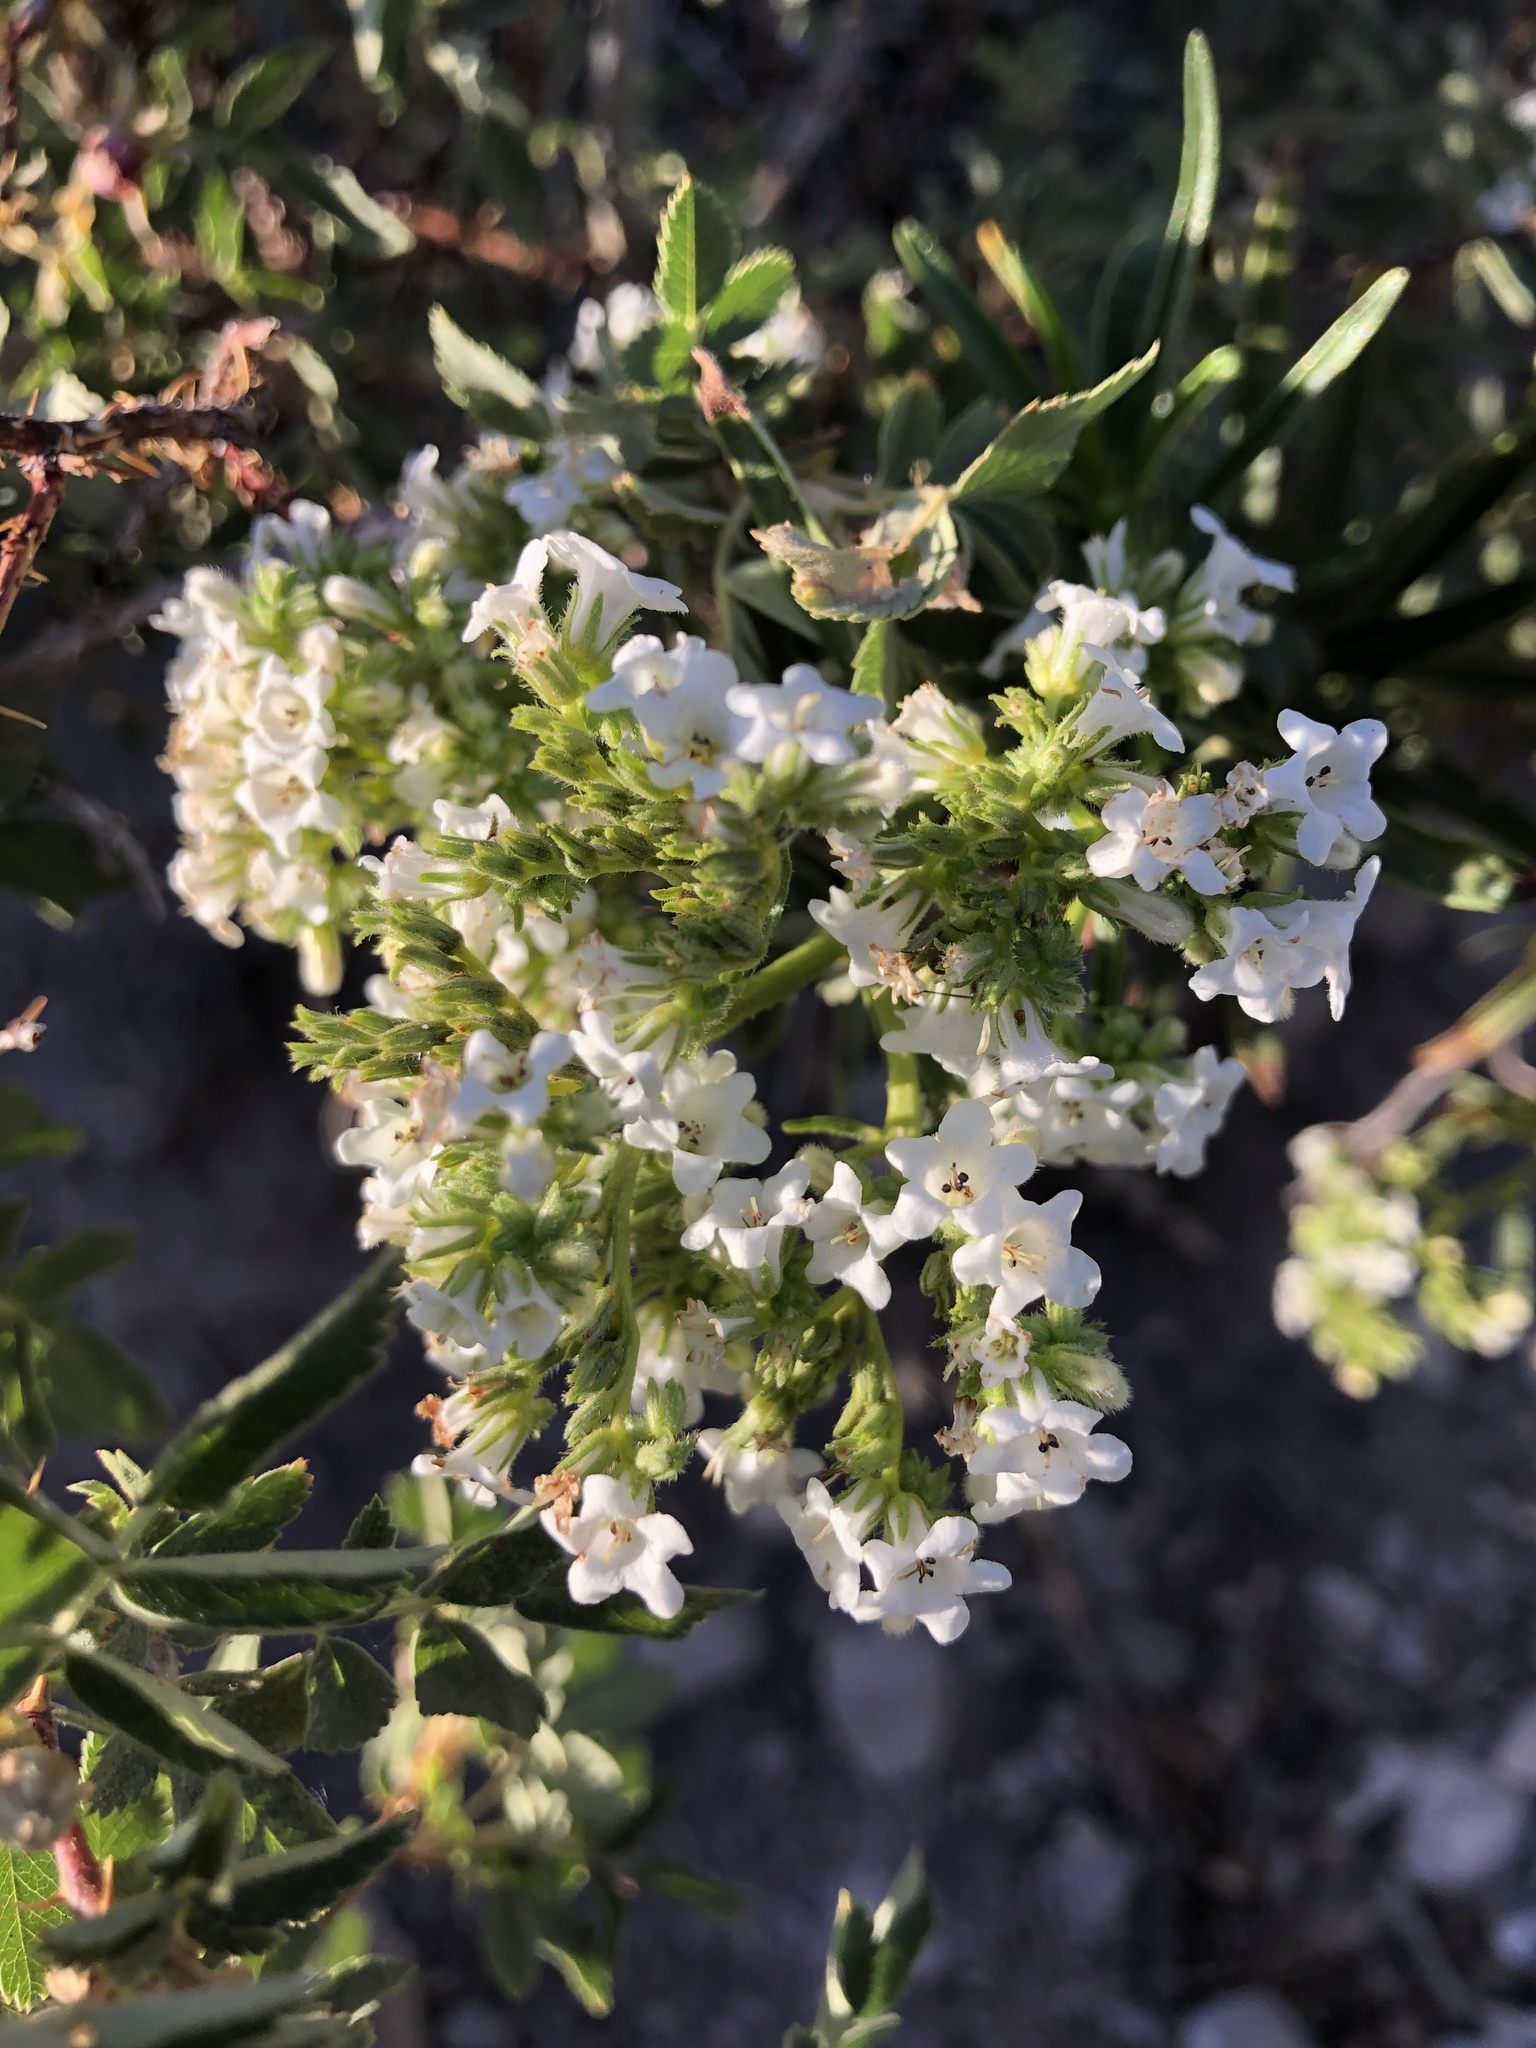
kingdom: Plantae
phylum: Tracheophyta
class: Magnoliopsida
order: Boraginales
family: Namaceae
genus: Eriodictyon
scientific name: Eriodictyon angustifolium
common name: Narrow-leaf yerba santa
